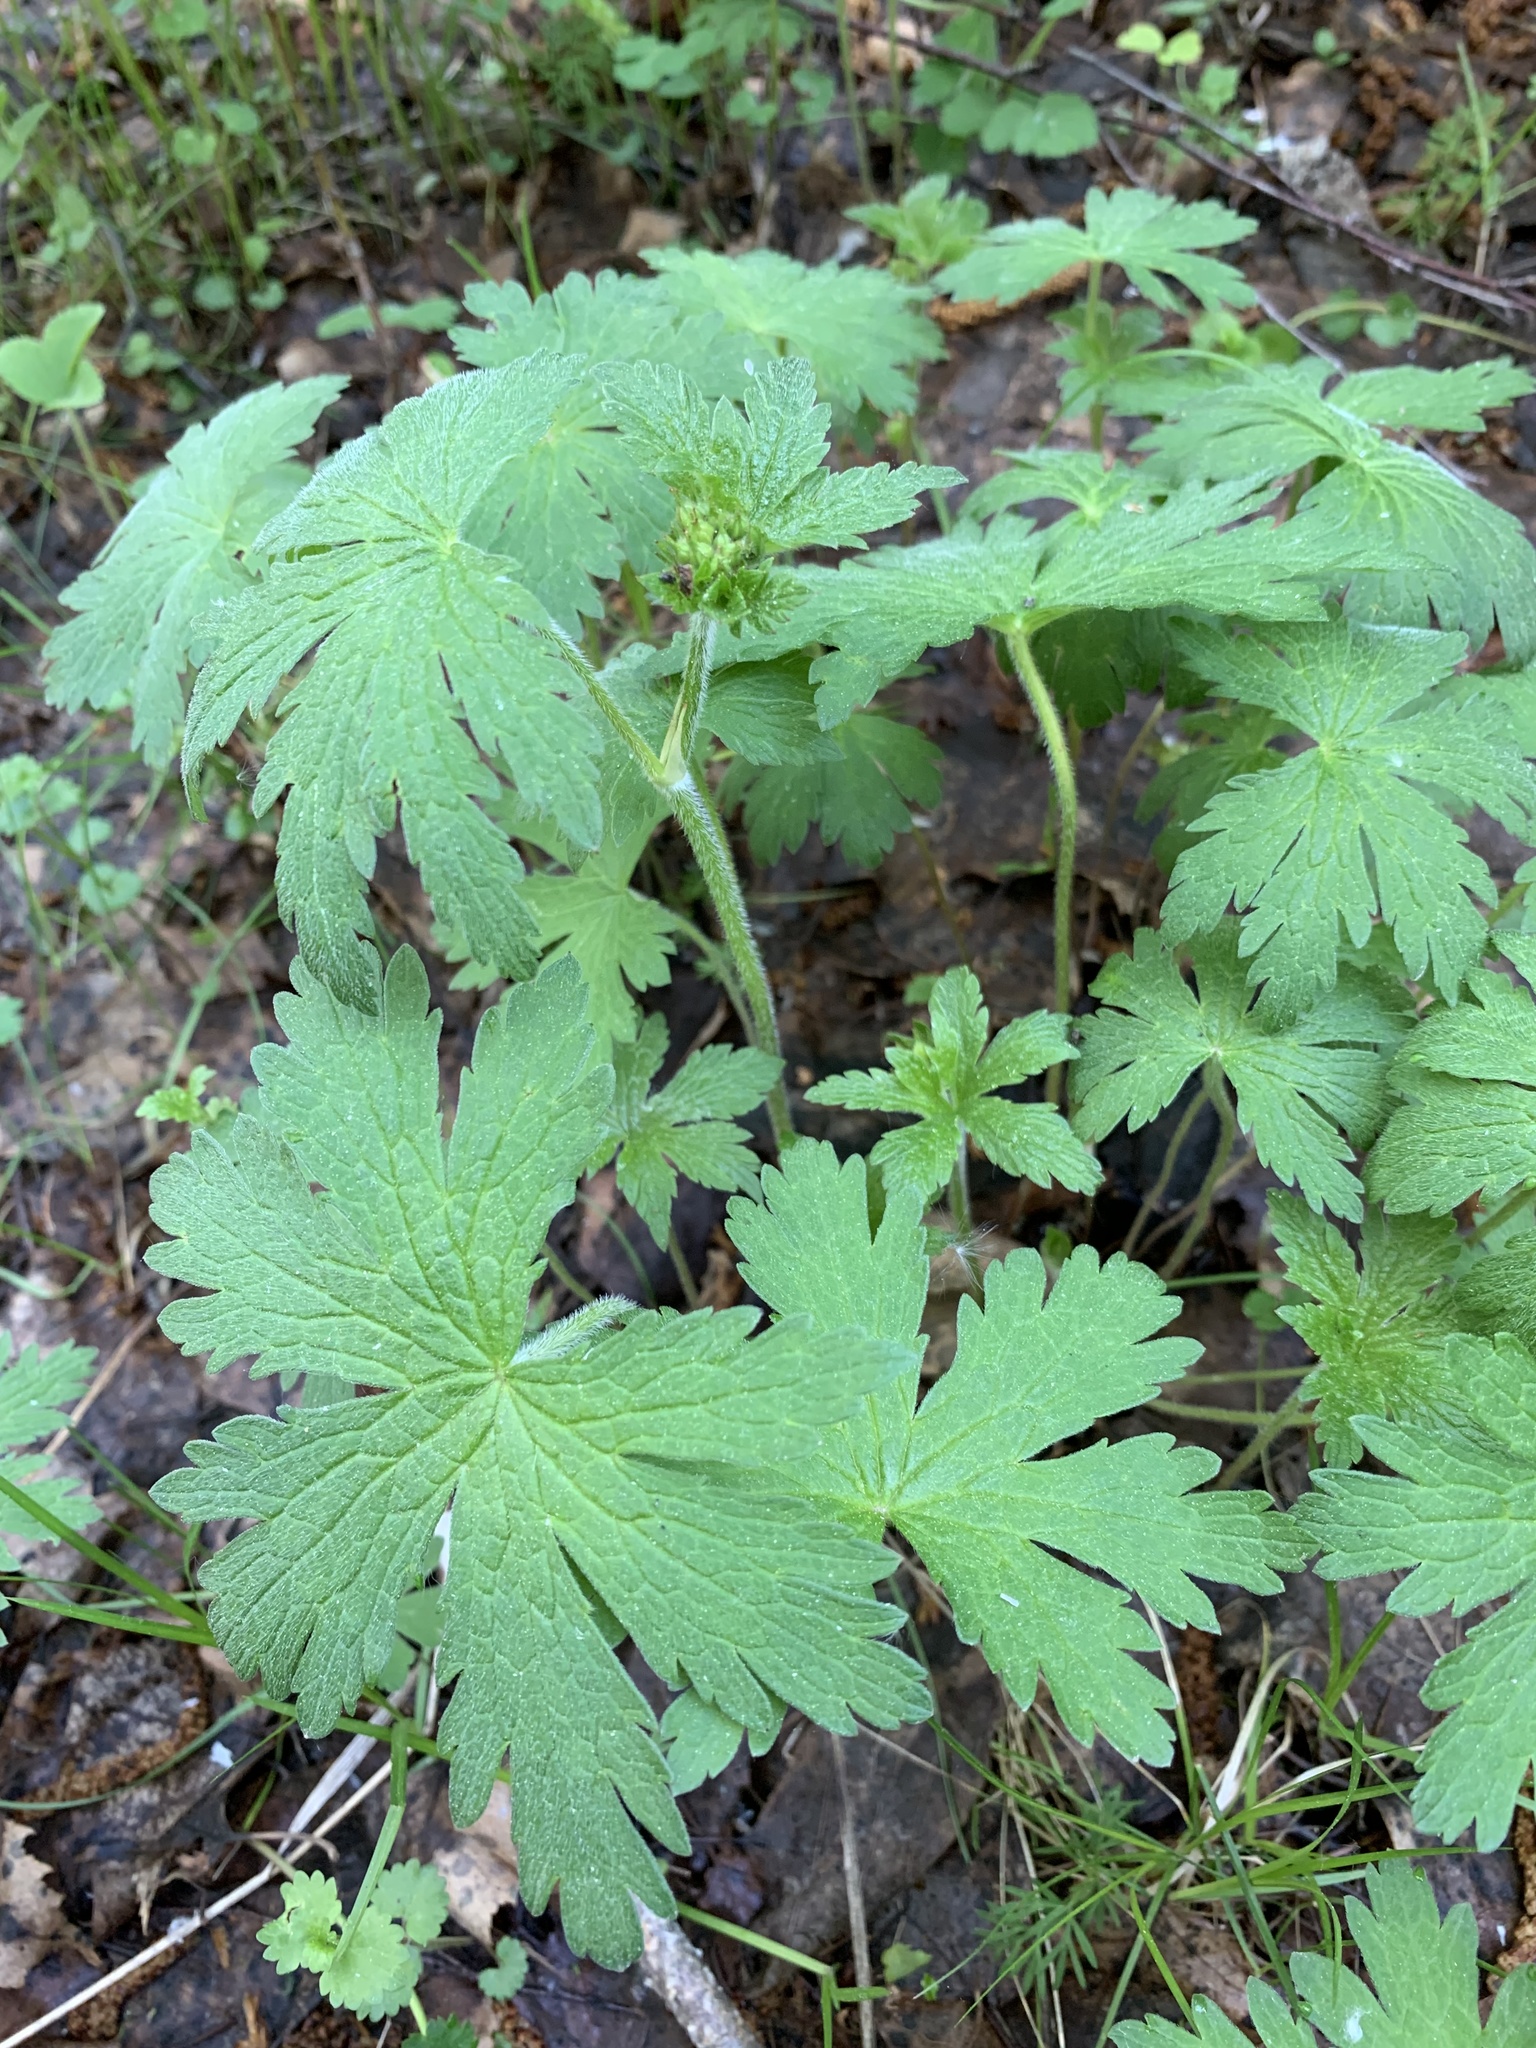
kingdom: Plantae
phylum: Tracheophyta
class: Magnoliopsida
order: Geraniales
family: Geraniaceae
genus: Geranium
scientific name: Geranium sylvaticum
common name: Wood crane's-bill
